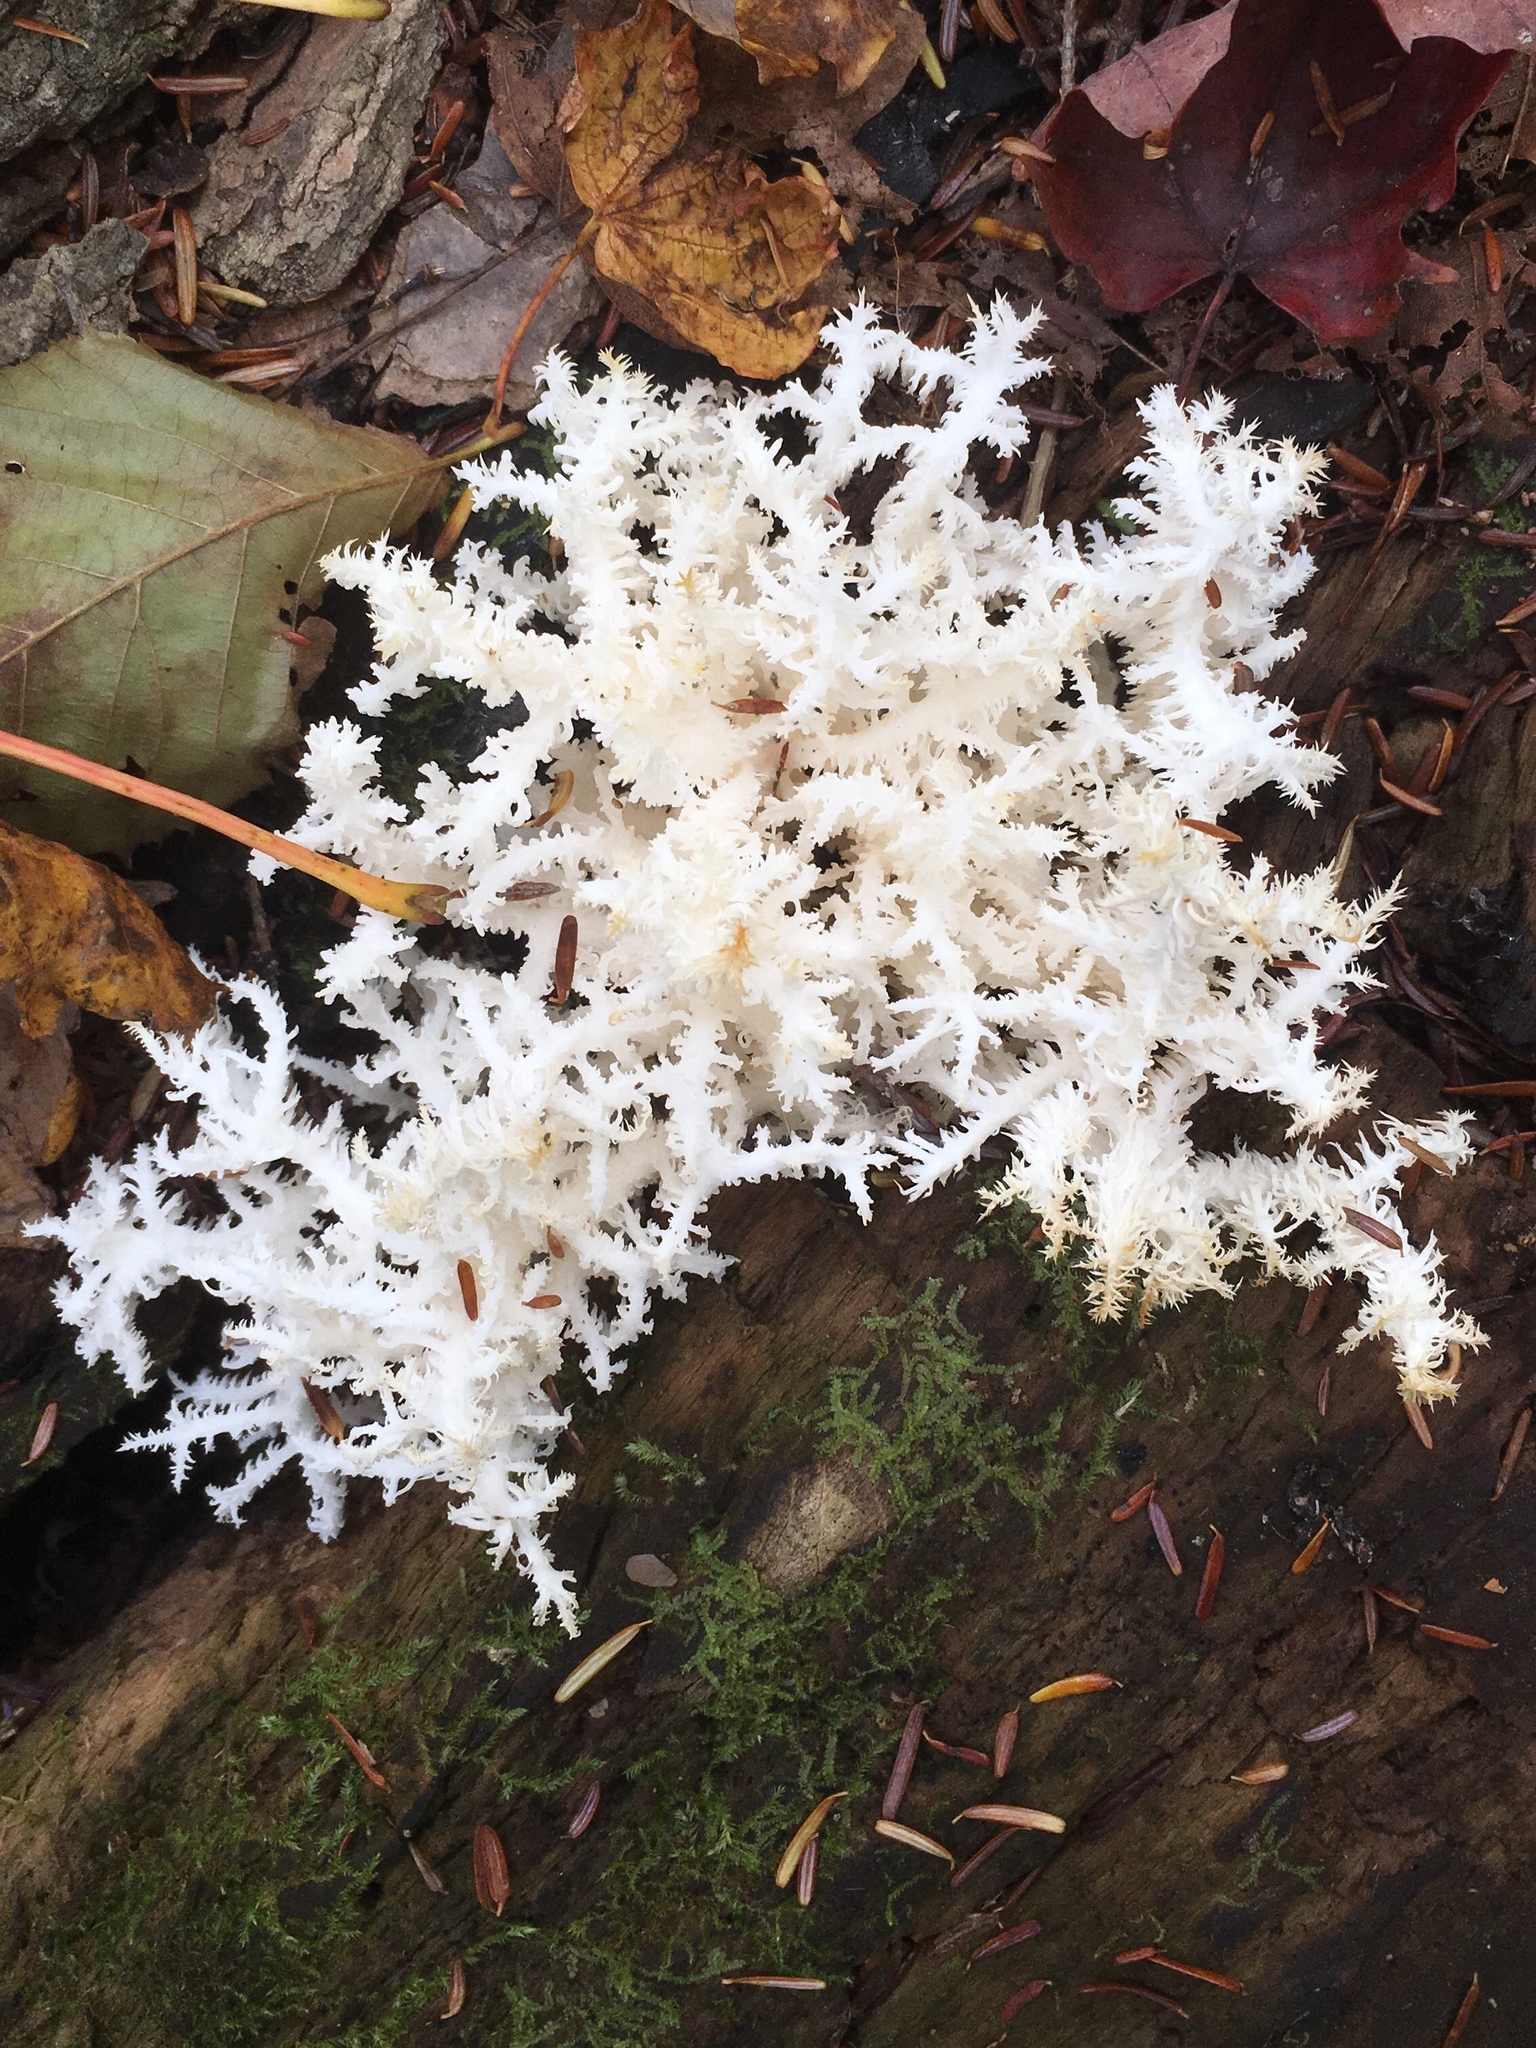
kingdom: Fungi
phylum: Basidiomycota
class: Agaricomycetes
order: Russulales
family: Hericiaceae
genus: Hericium
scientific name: Hericium coralloides
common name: Coral tooth
